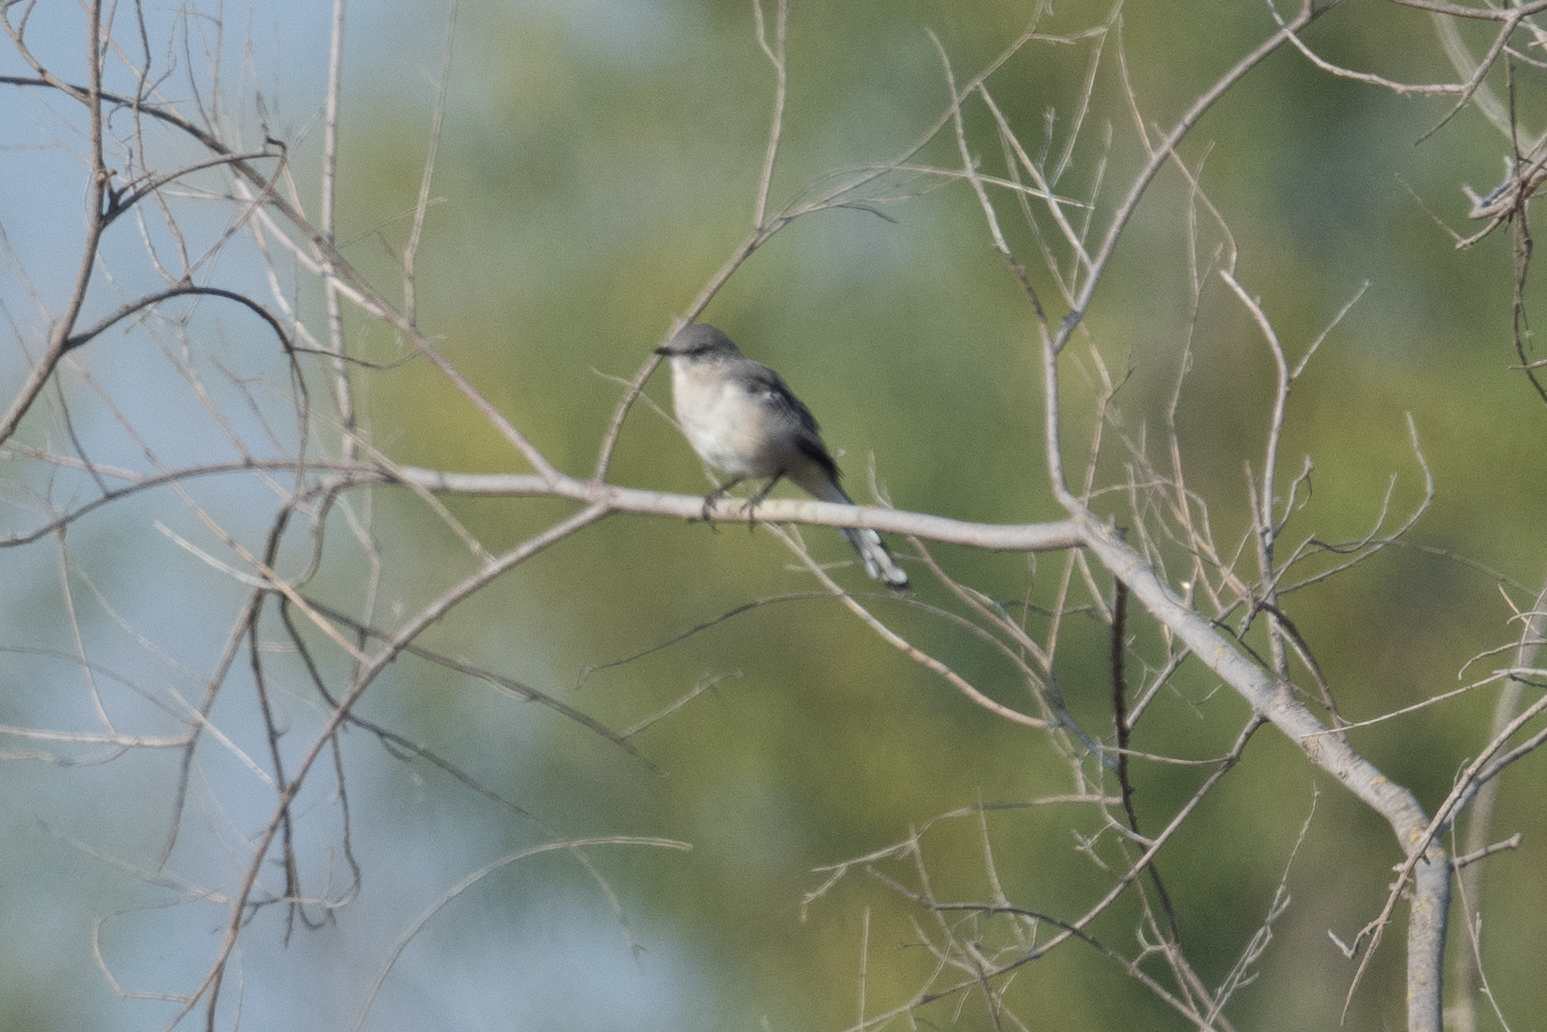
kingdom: Animalia
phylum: Chordata
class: Aves
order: Passeriformes
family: Mimidae
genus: Mimus
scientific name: Mimus polyglottos
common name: Northern mockingbird
